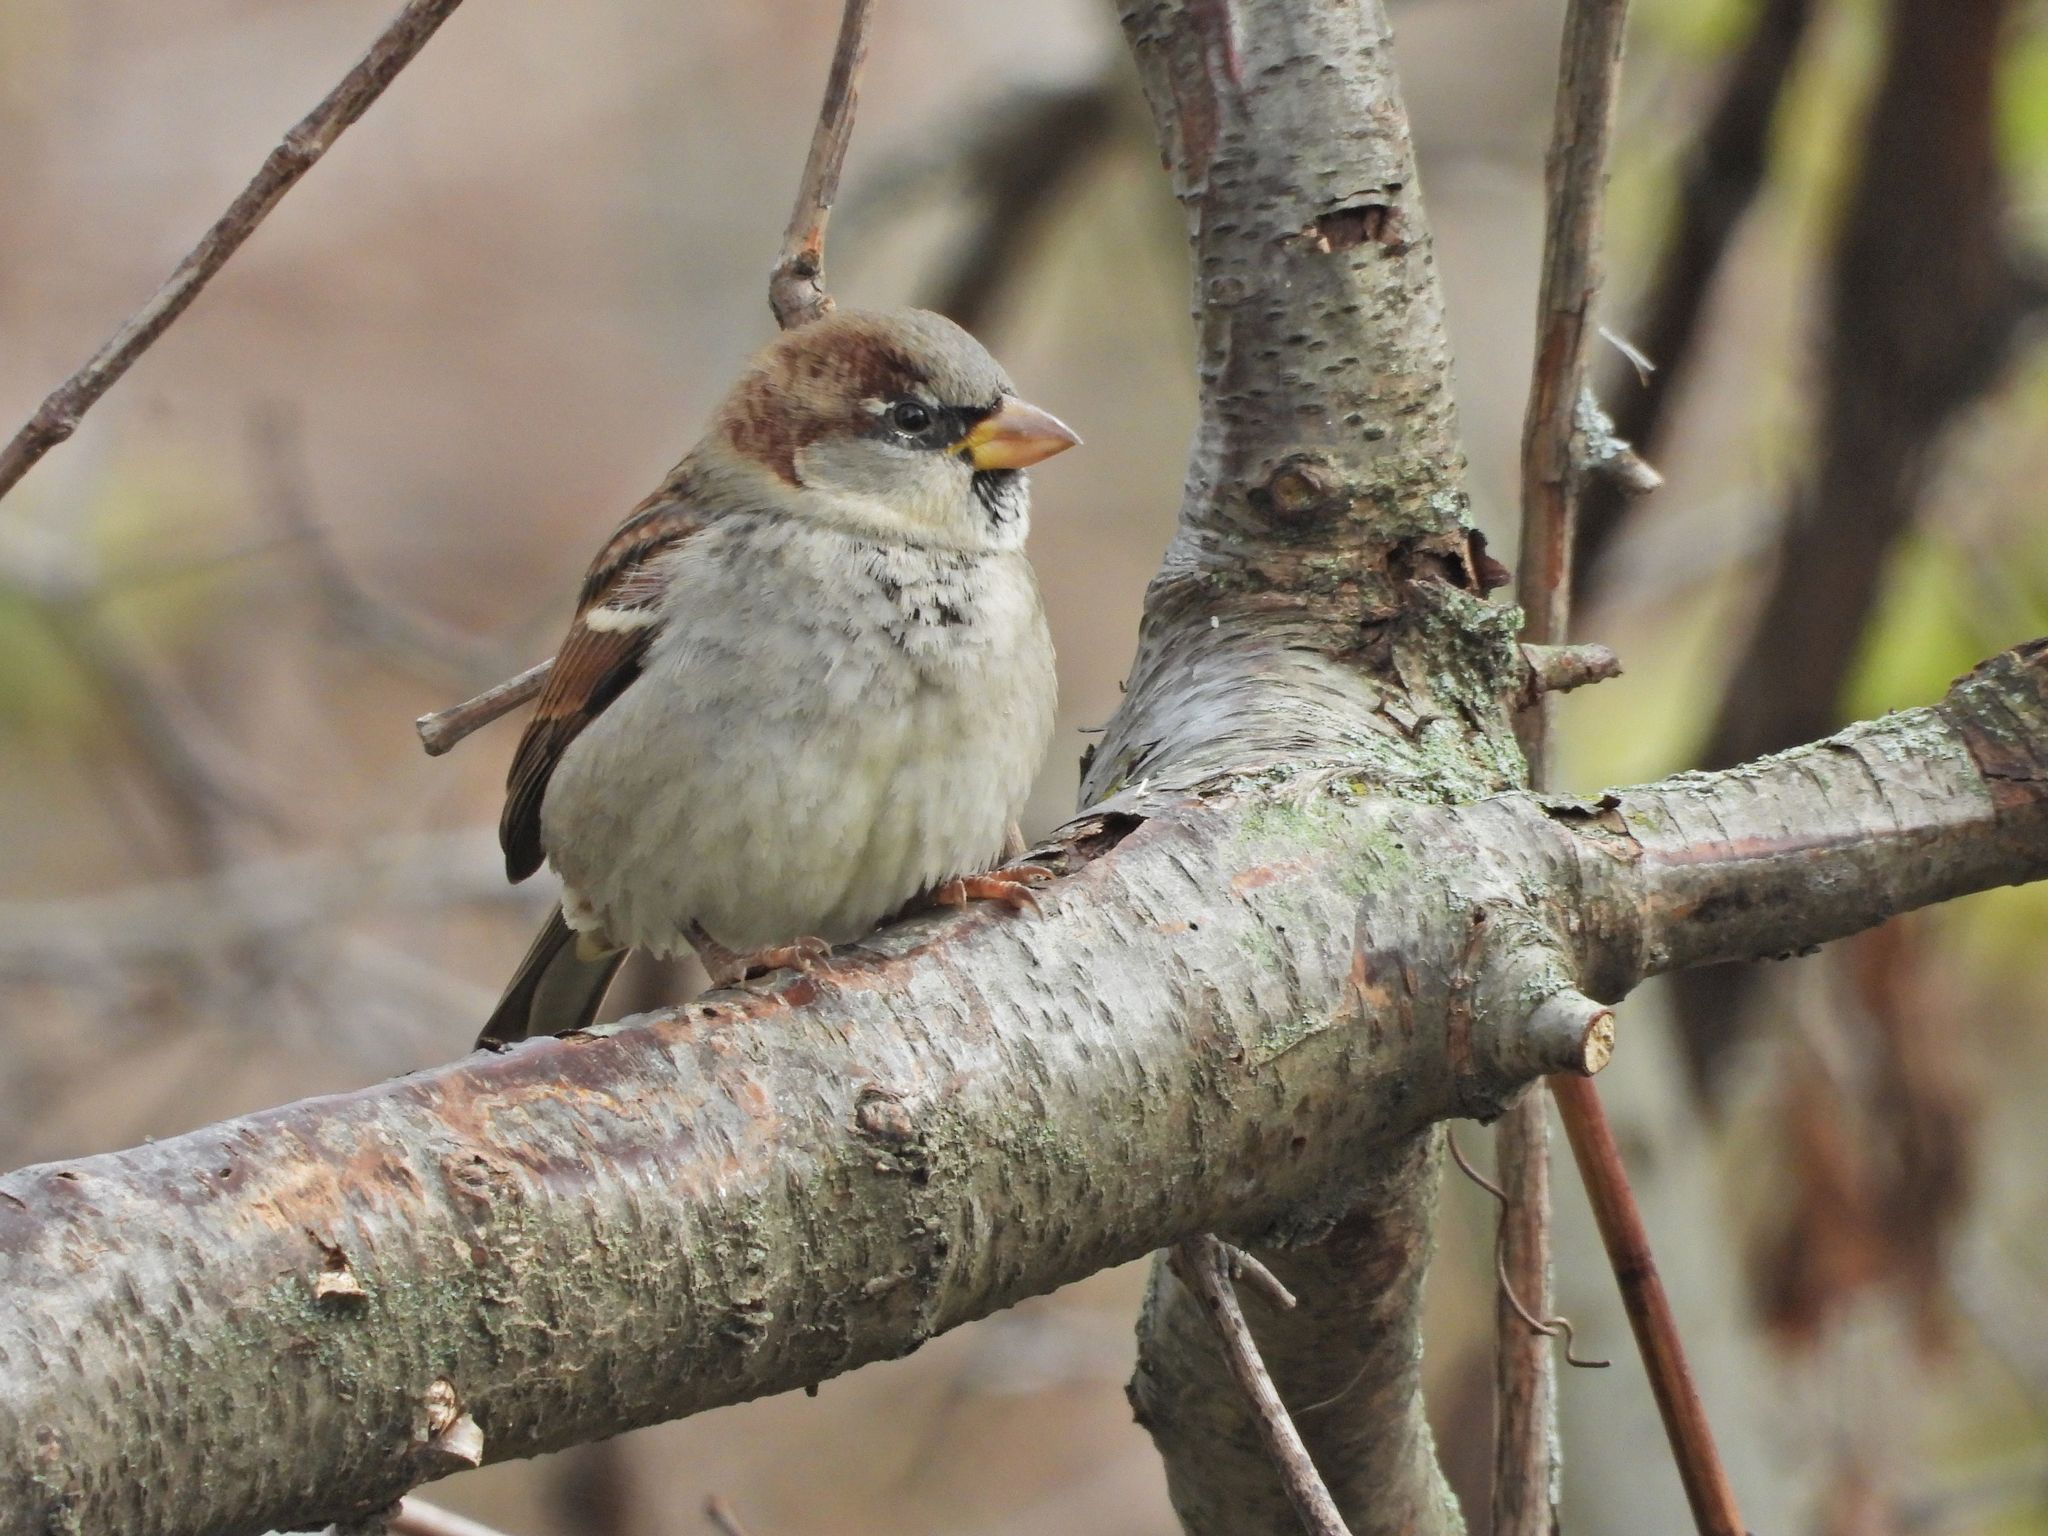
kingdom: Animalia
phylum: Chordata
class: Aves
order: Passeriformes
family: Passeridae
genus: Passer
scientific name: Passer domesticus
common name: House sparrow
